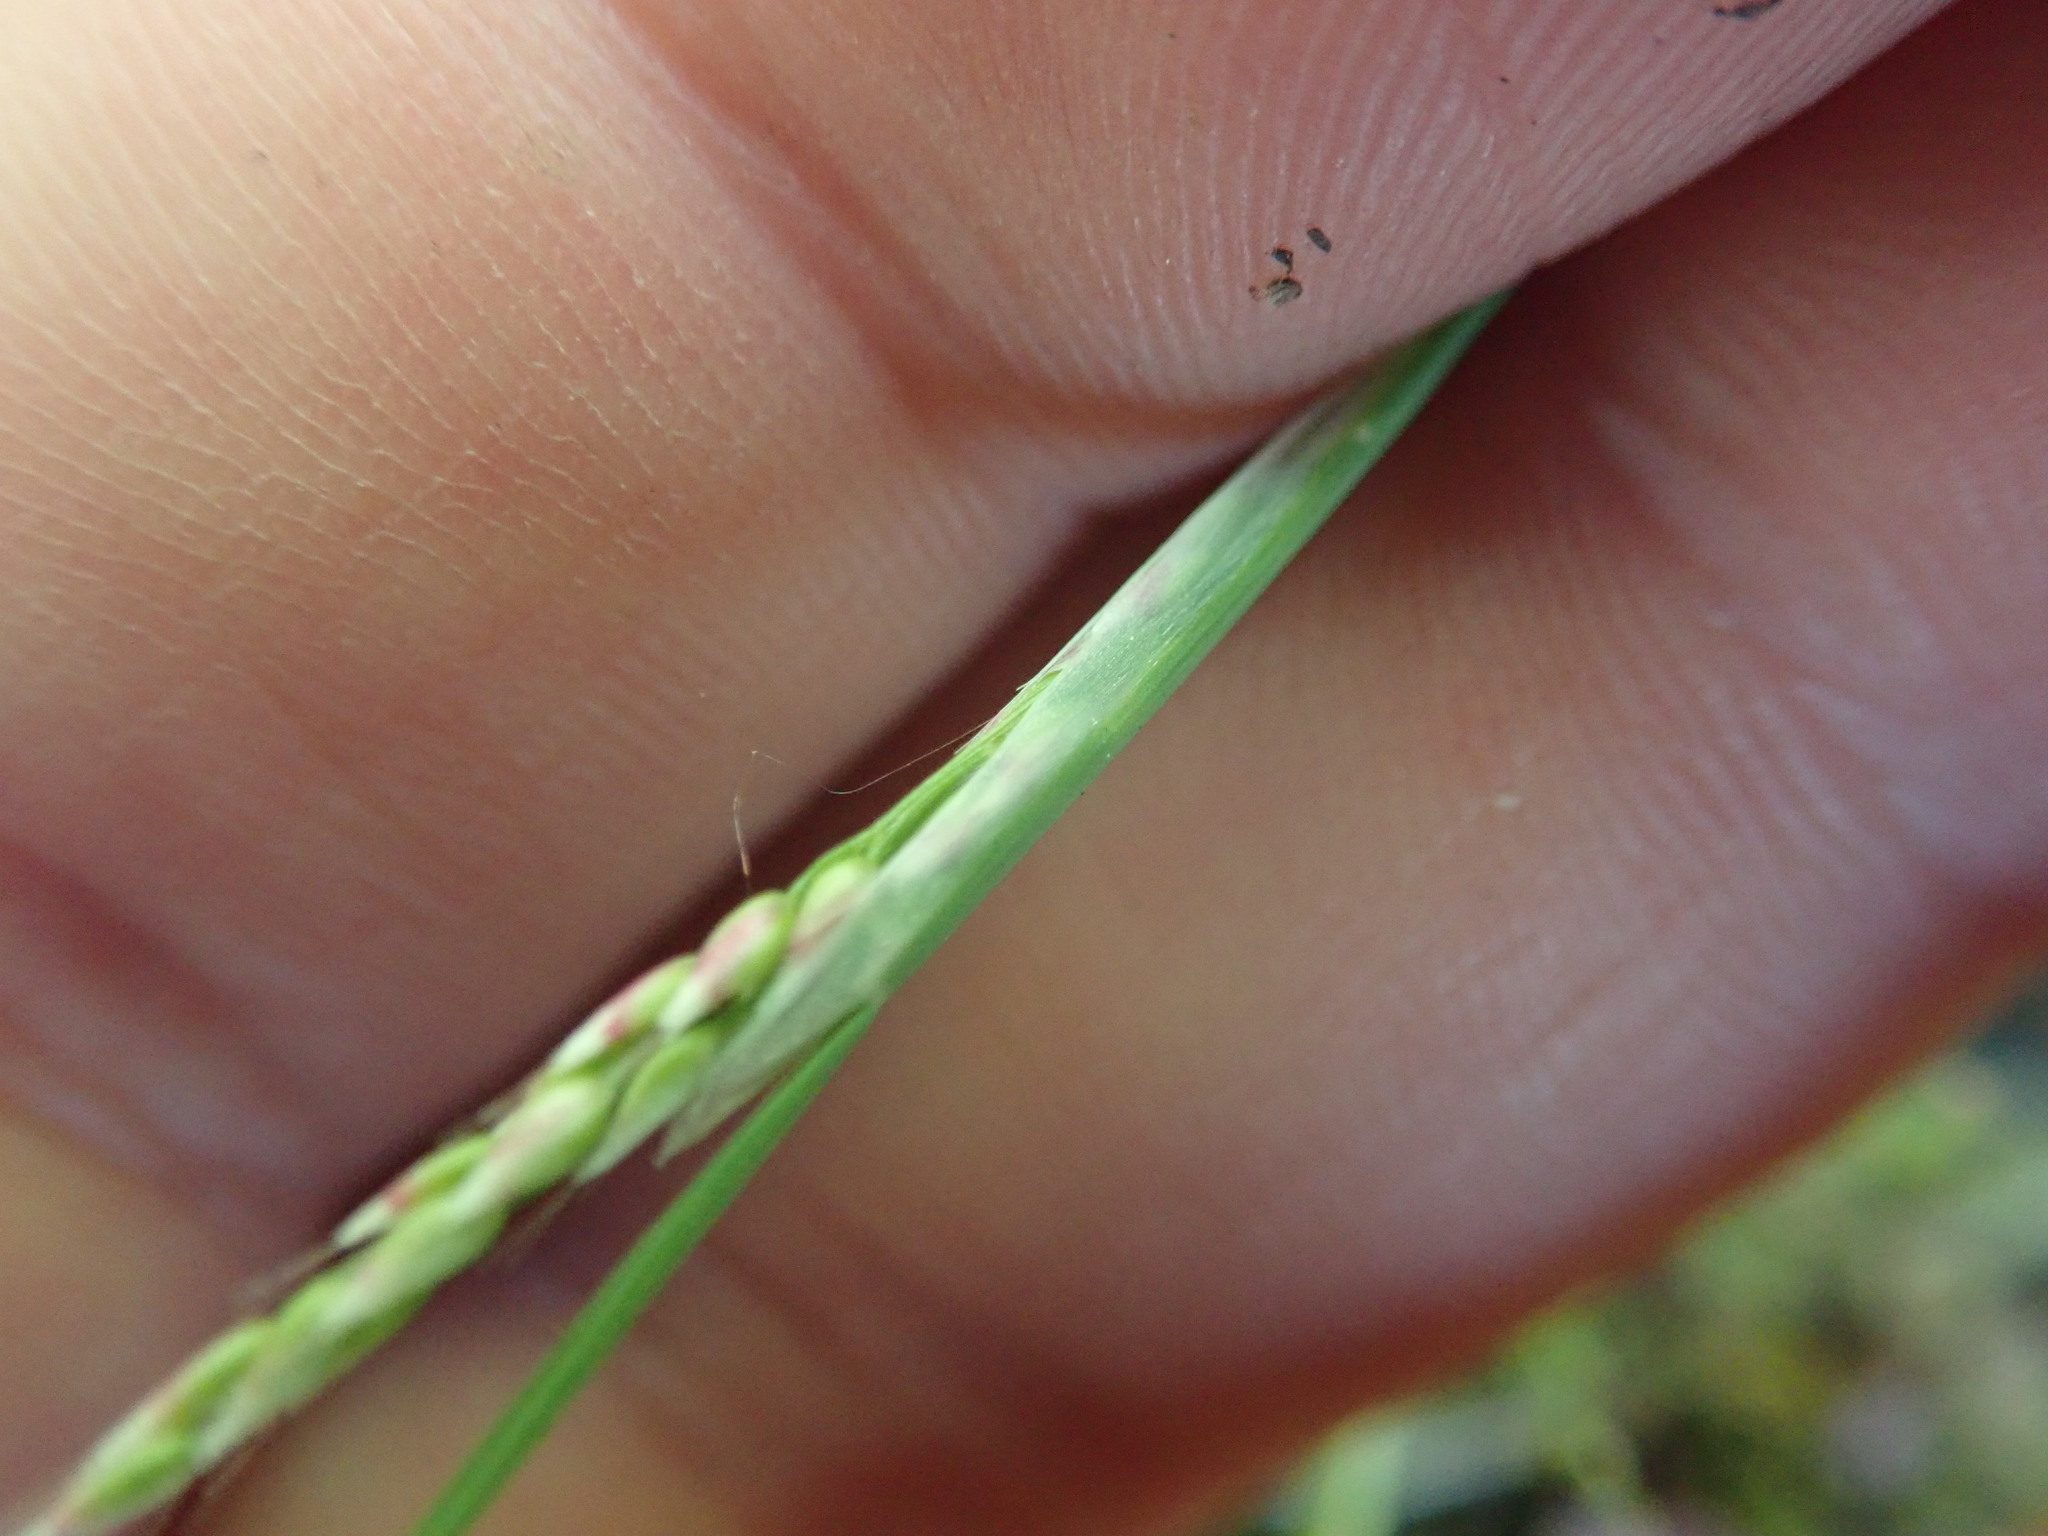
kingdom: Plantae
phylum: Tracheophyta
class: Liliopsida
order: Poales
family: Poaceae
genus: Aira
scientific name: Aira praecox
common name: Early hair-grass
